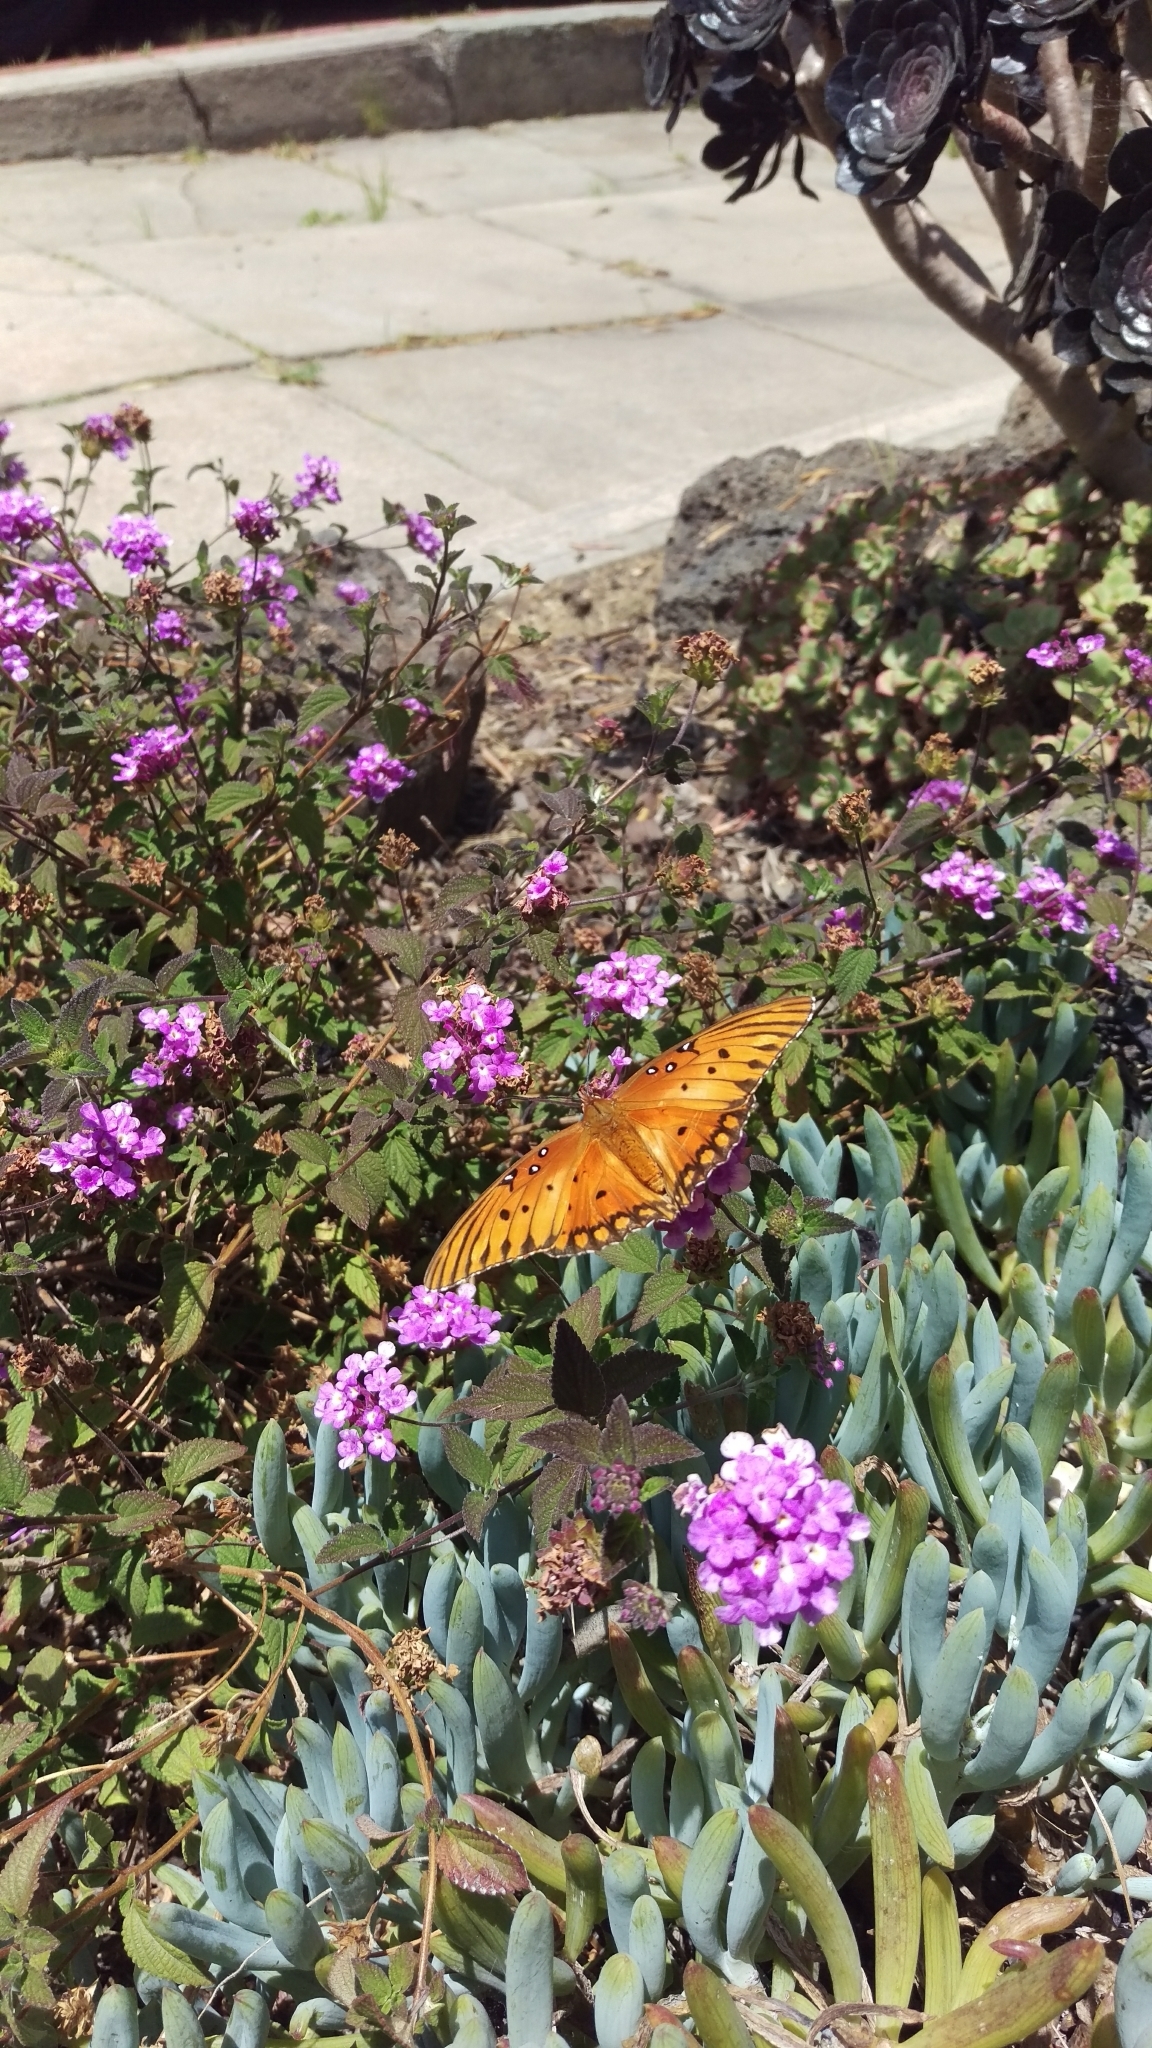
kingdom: Animalia
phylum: Arthropoda
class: Insecta
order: Lepidoptera
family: Nymphalidae
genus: Dione
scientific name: Dione vanillae
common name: Gulf fritillary
